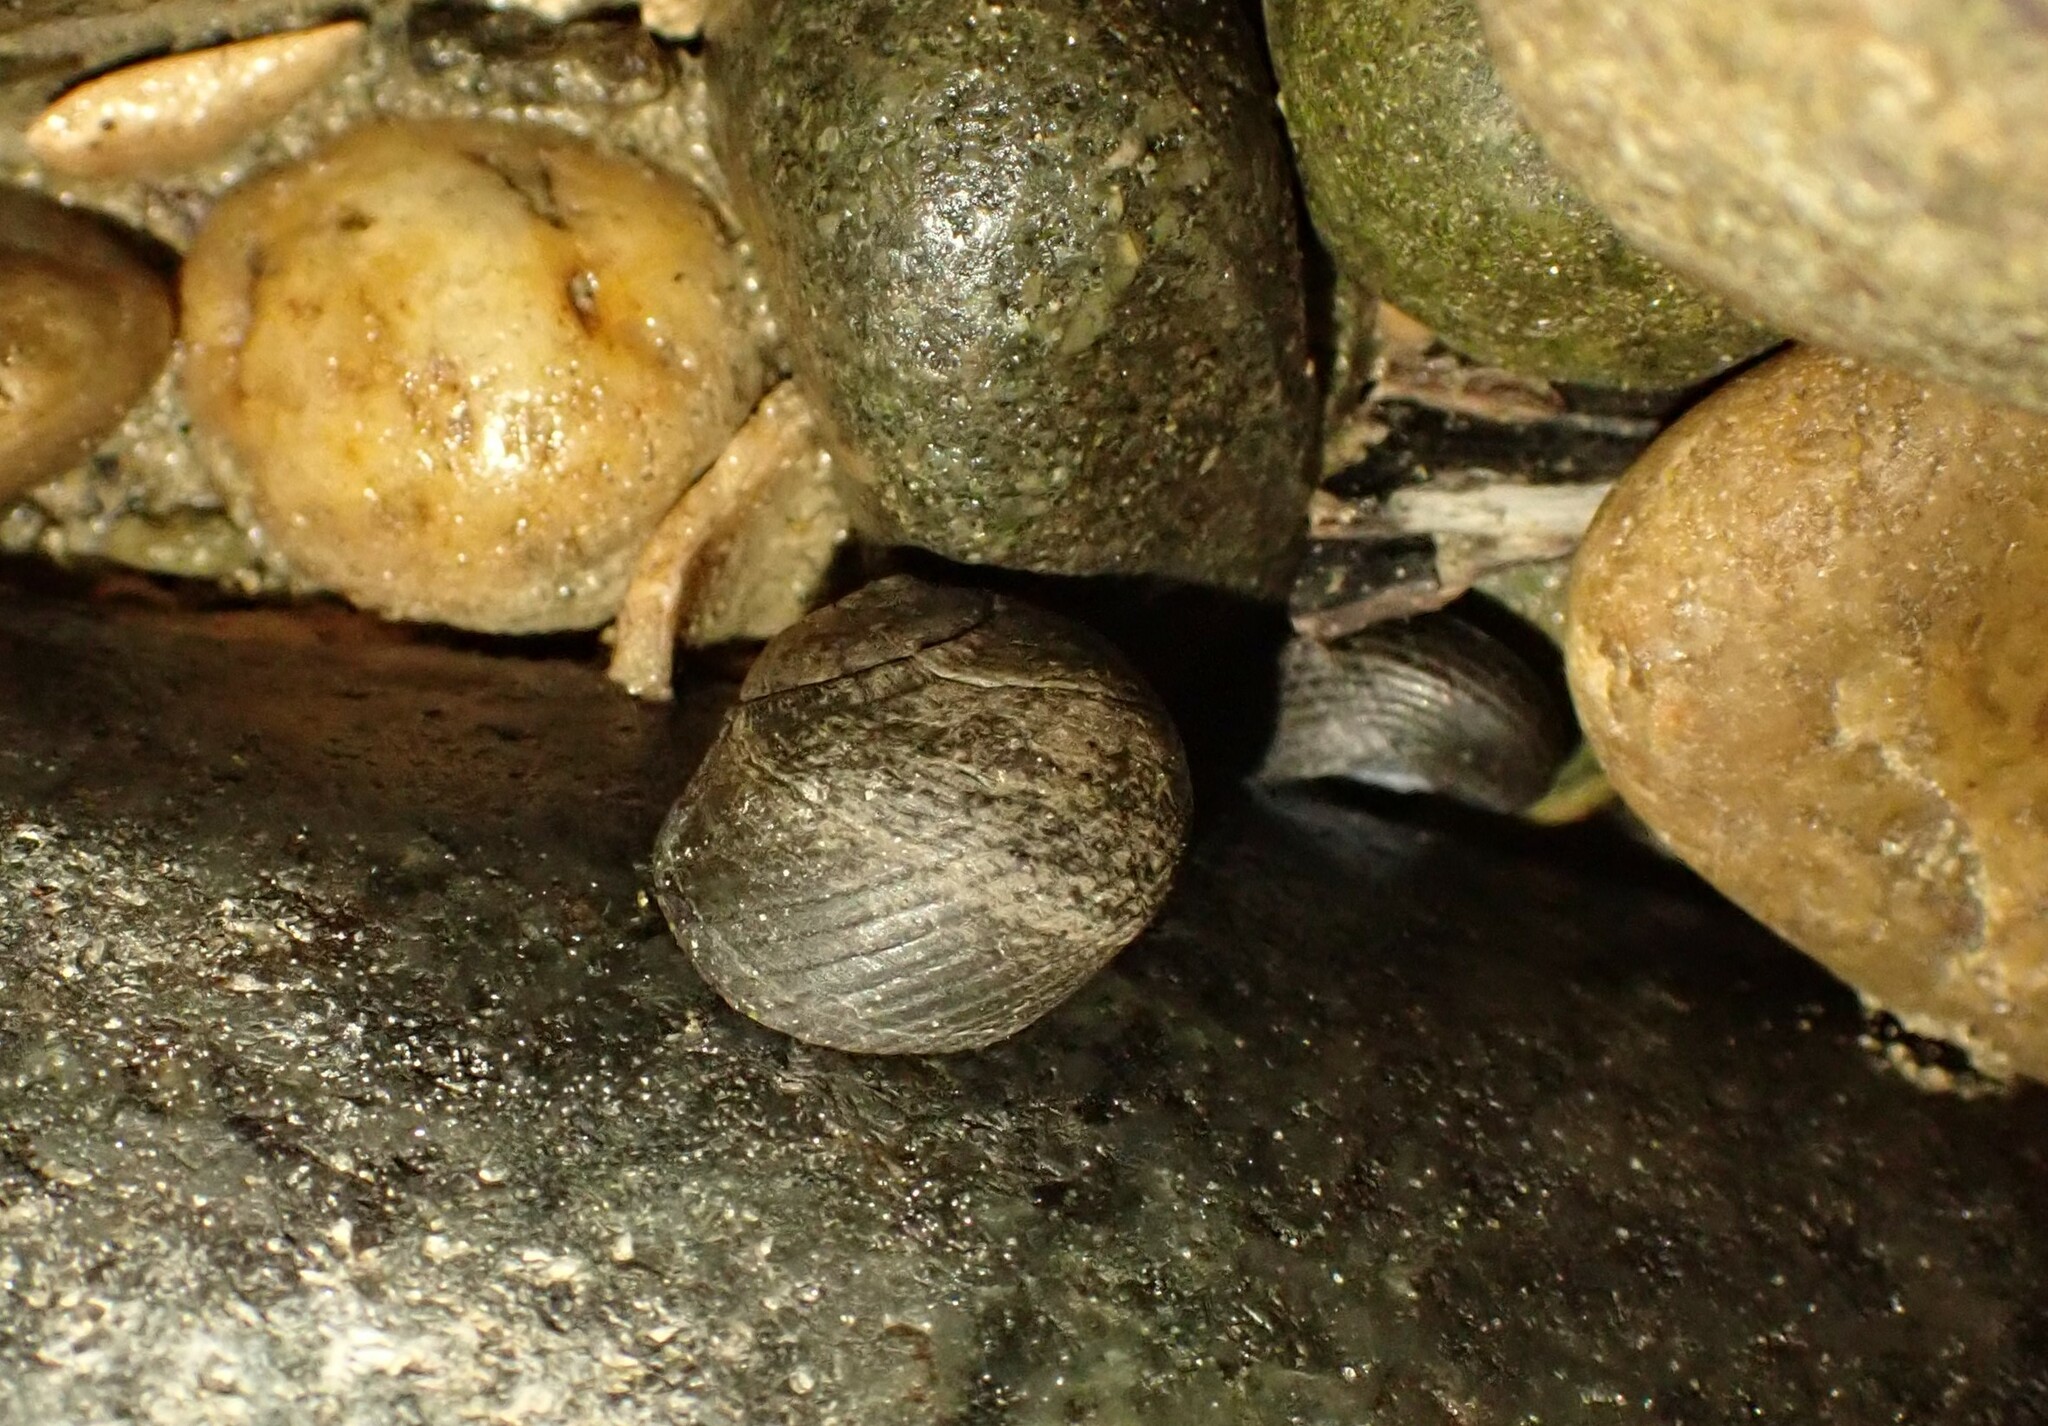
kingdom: Animalia
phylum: Mollusca
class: Gastropoda
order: Trochida
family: Trochidae
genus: Diloma
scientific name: Diloma zelandicum
